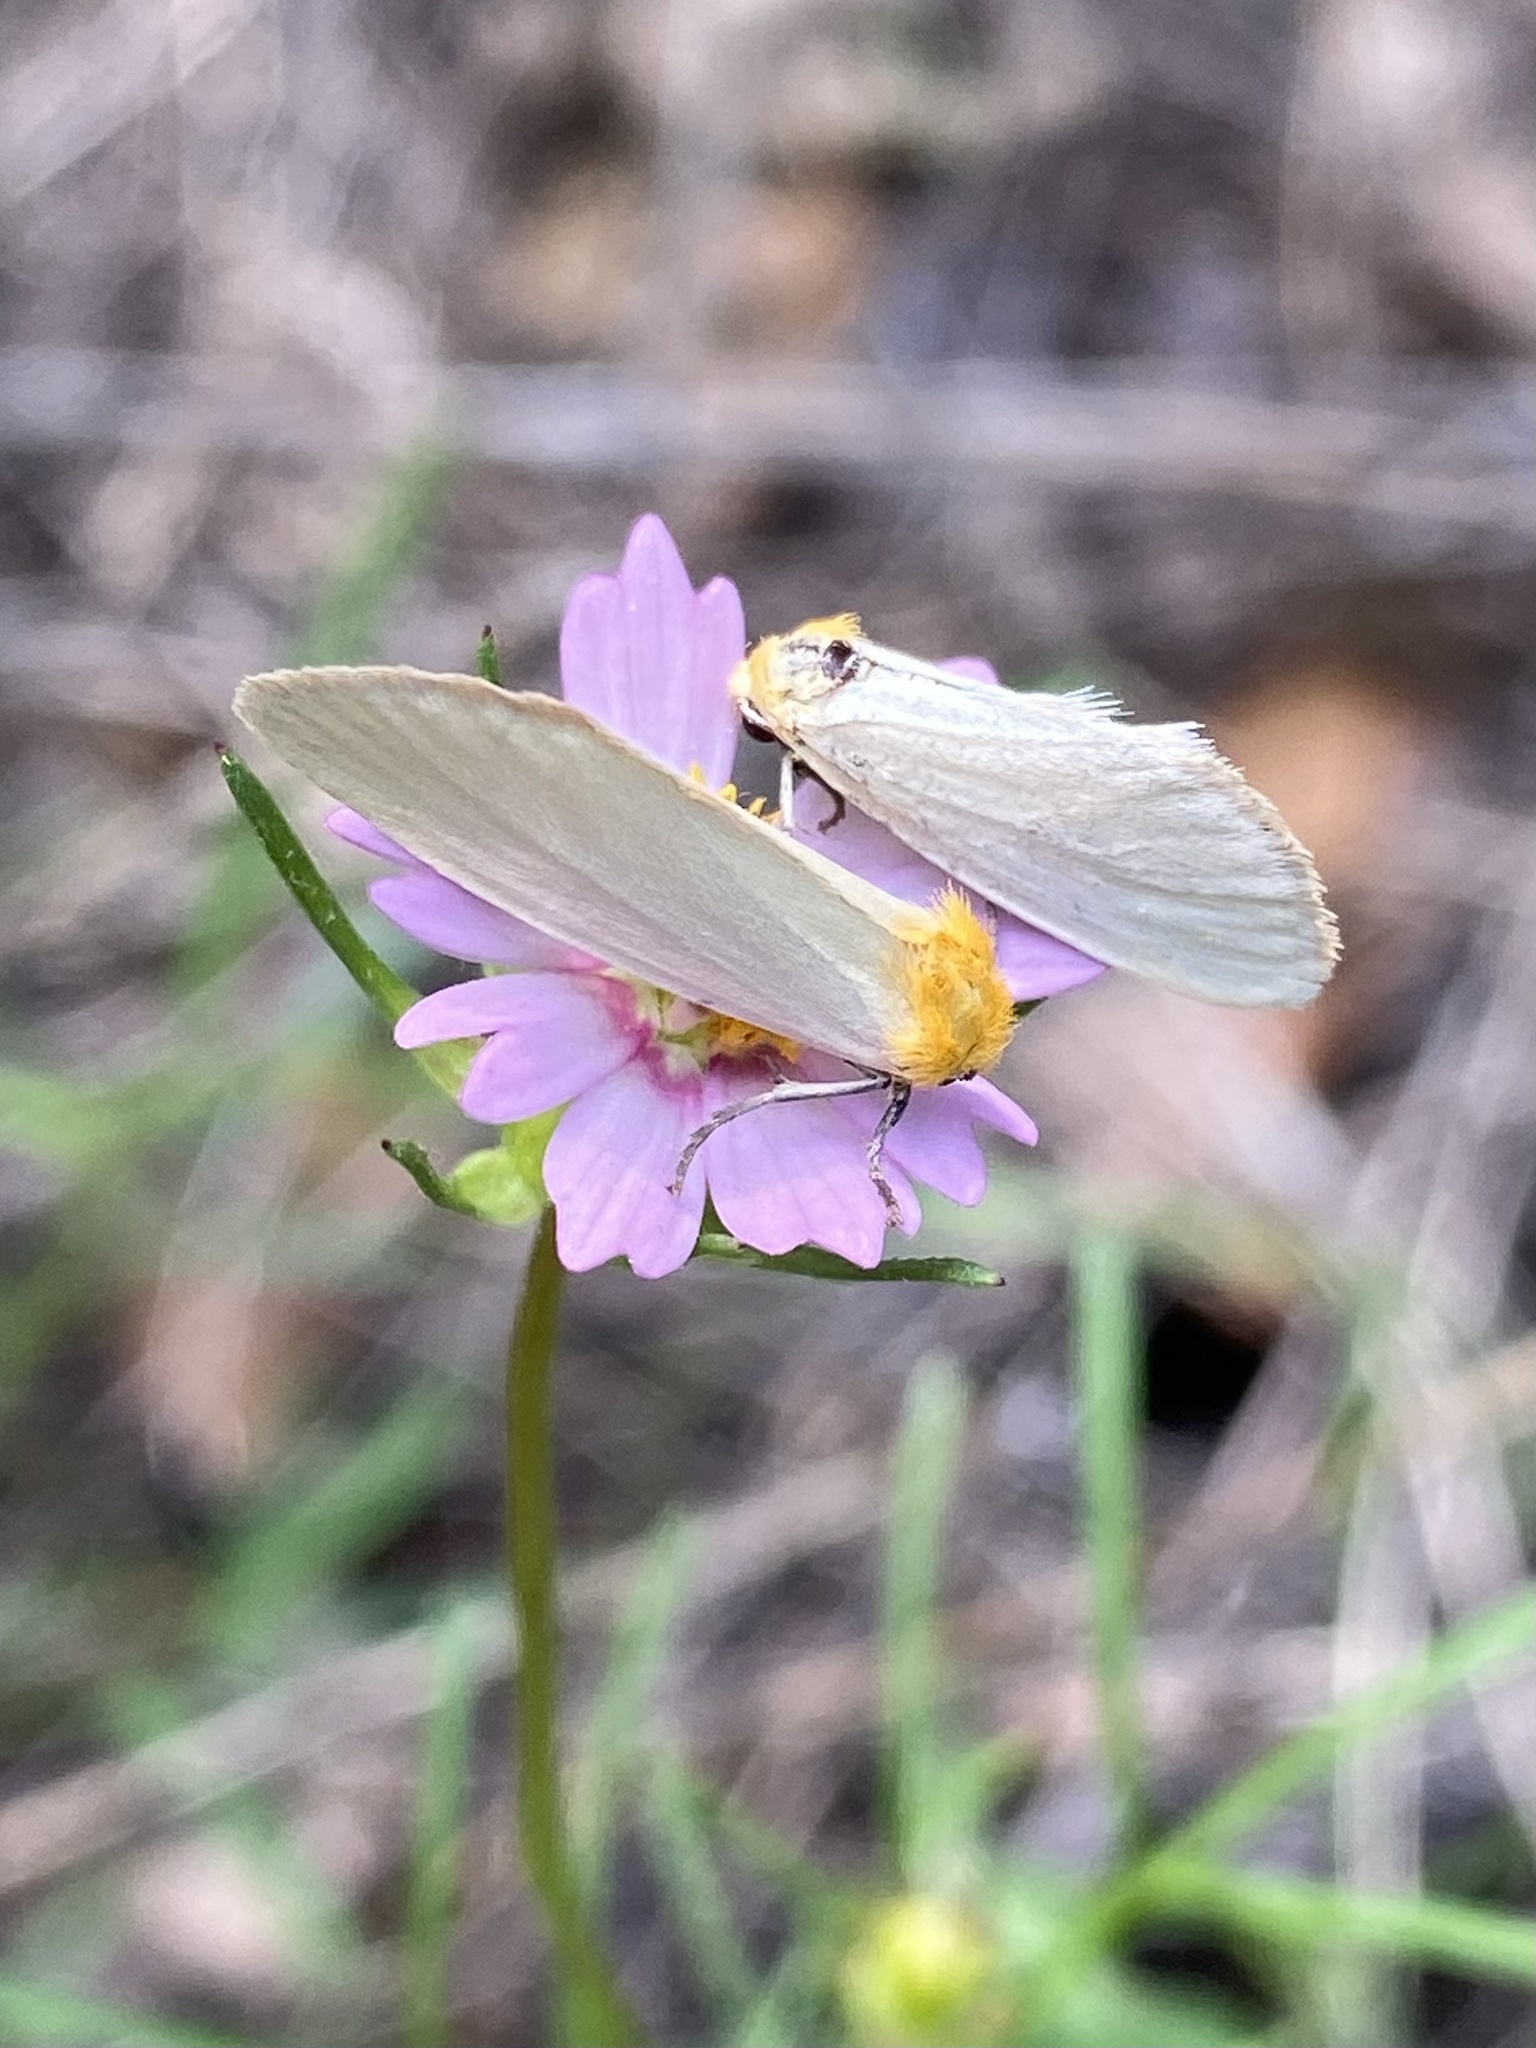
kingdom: Animalia
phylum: Arthropoda
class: Insecta
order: Lepidoptera
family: Noctuidae
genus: Chrysoecia
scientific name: Chrysoecia thoracica
